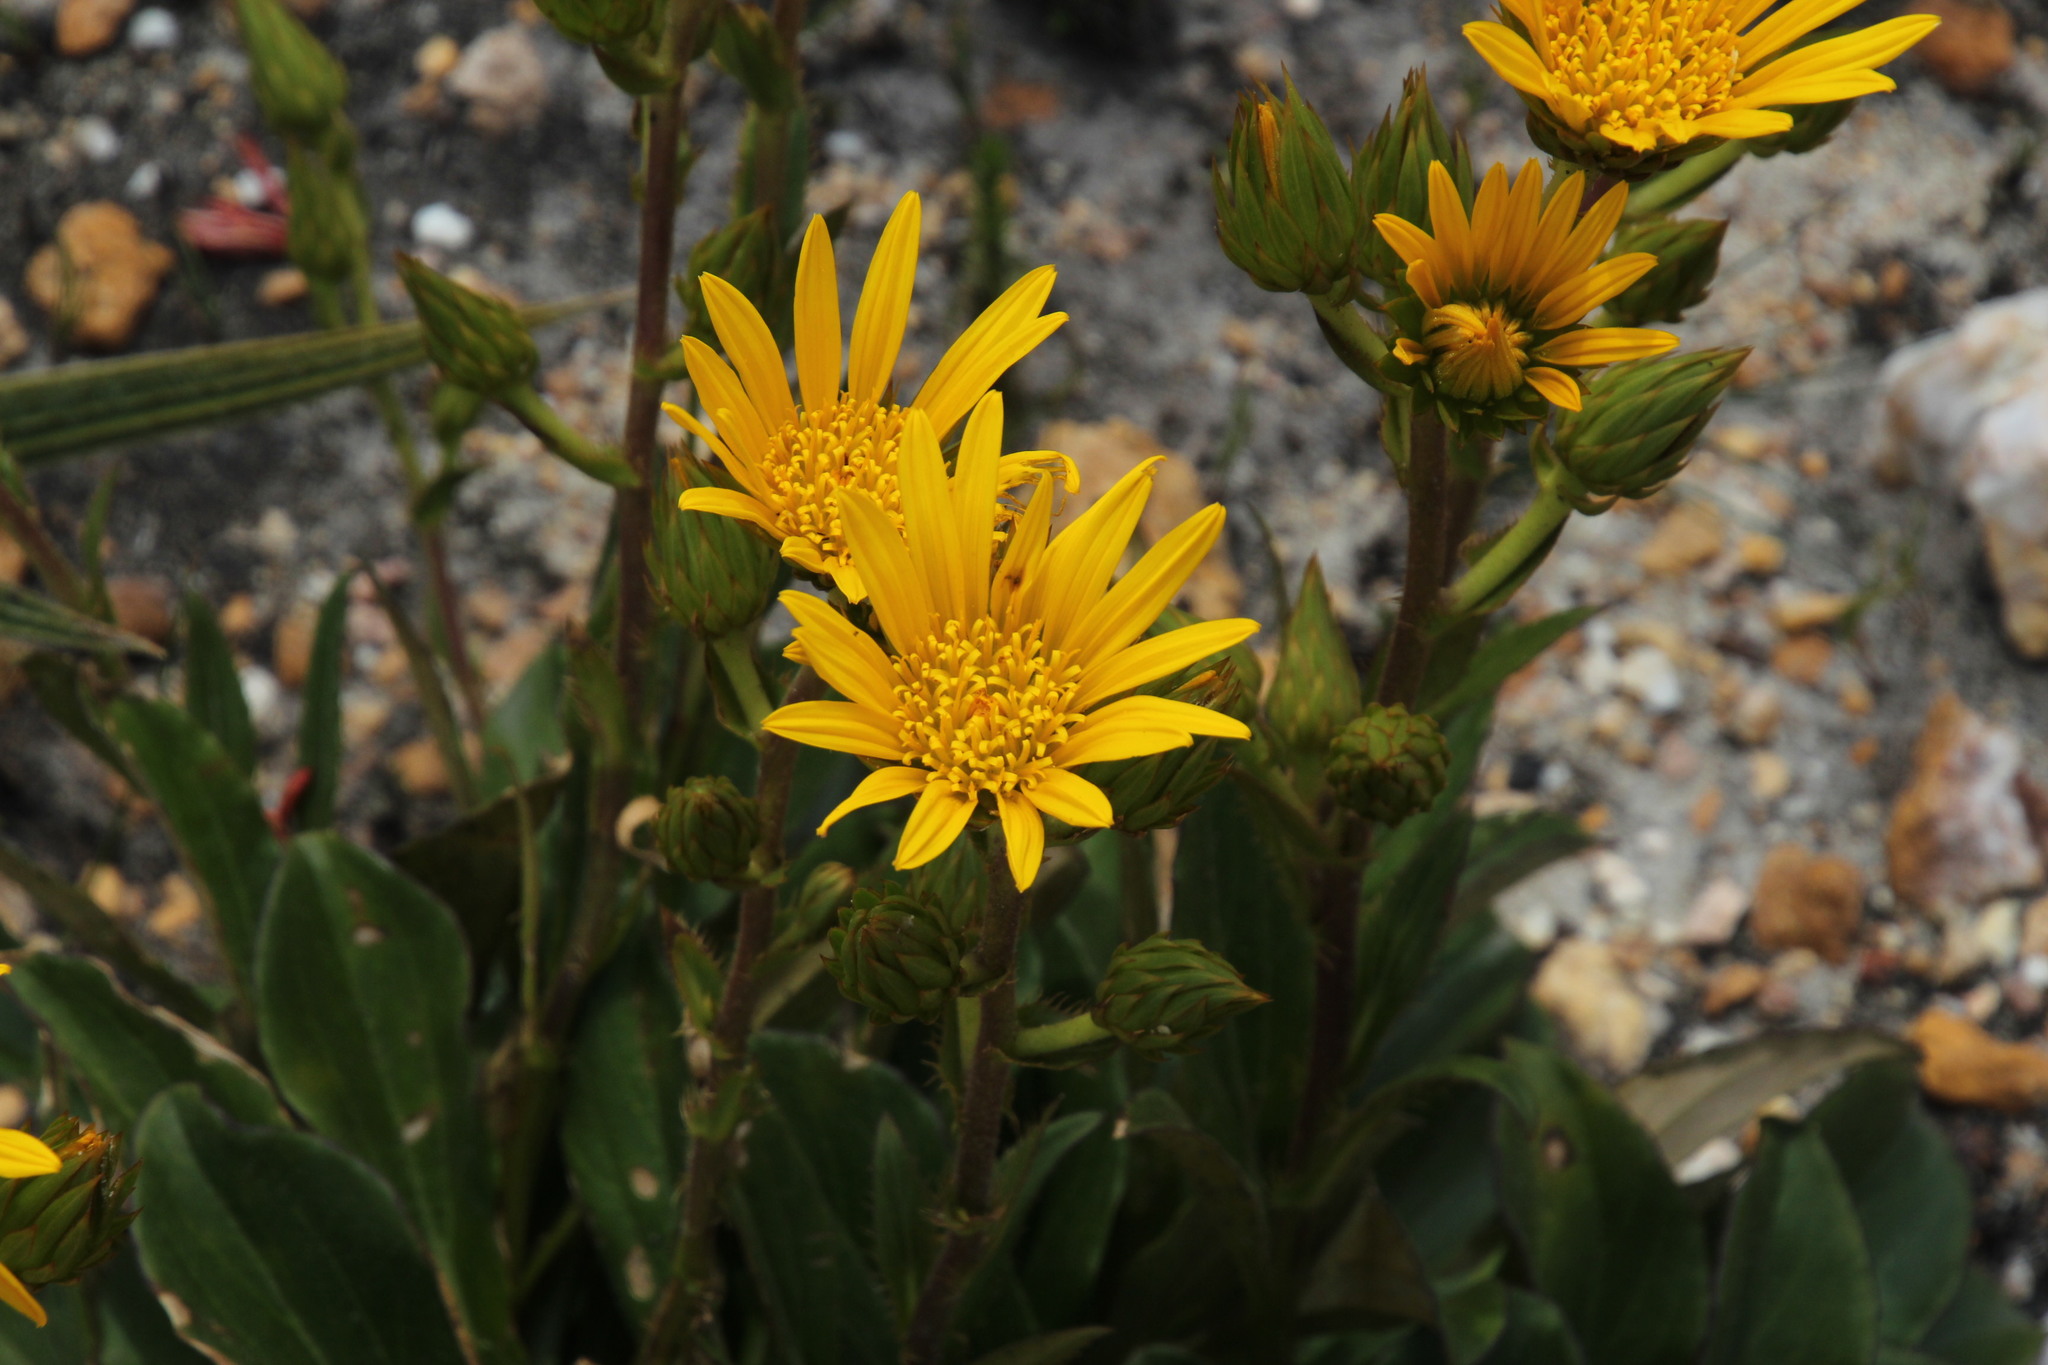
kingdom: Plantae
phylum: Tracheophyta
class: Magnoliopsida
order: Asterales
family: Asteraceae
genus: Berkheya
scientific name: Berkheya herbacea
